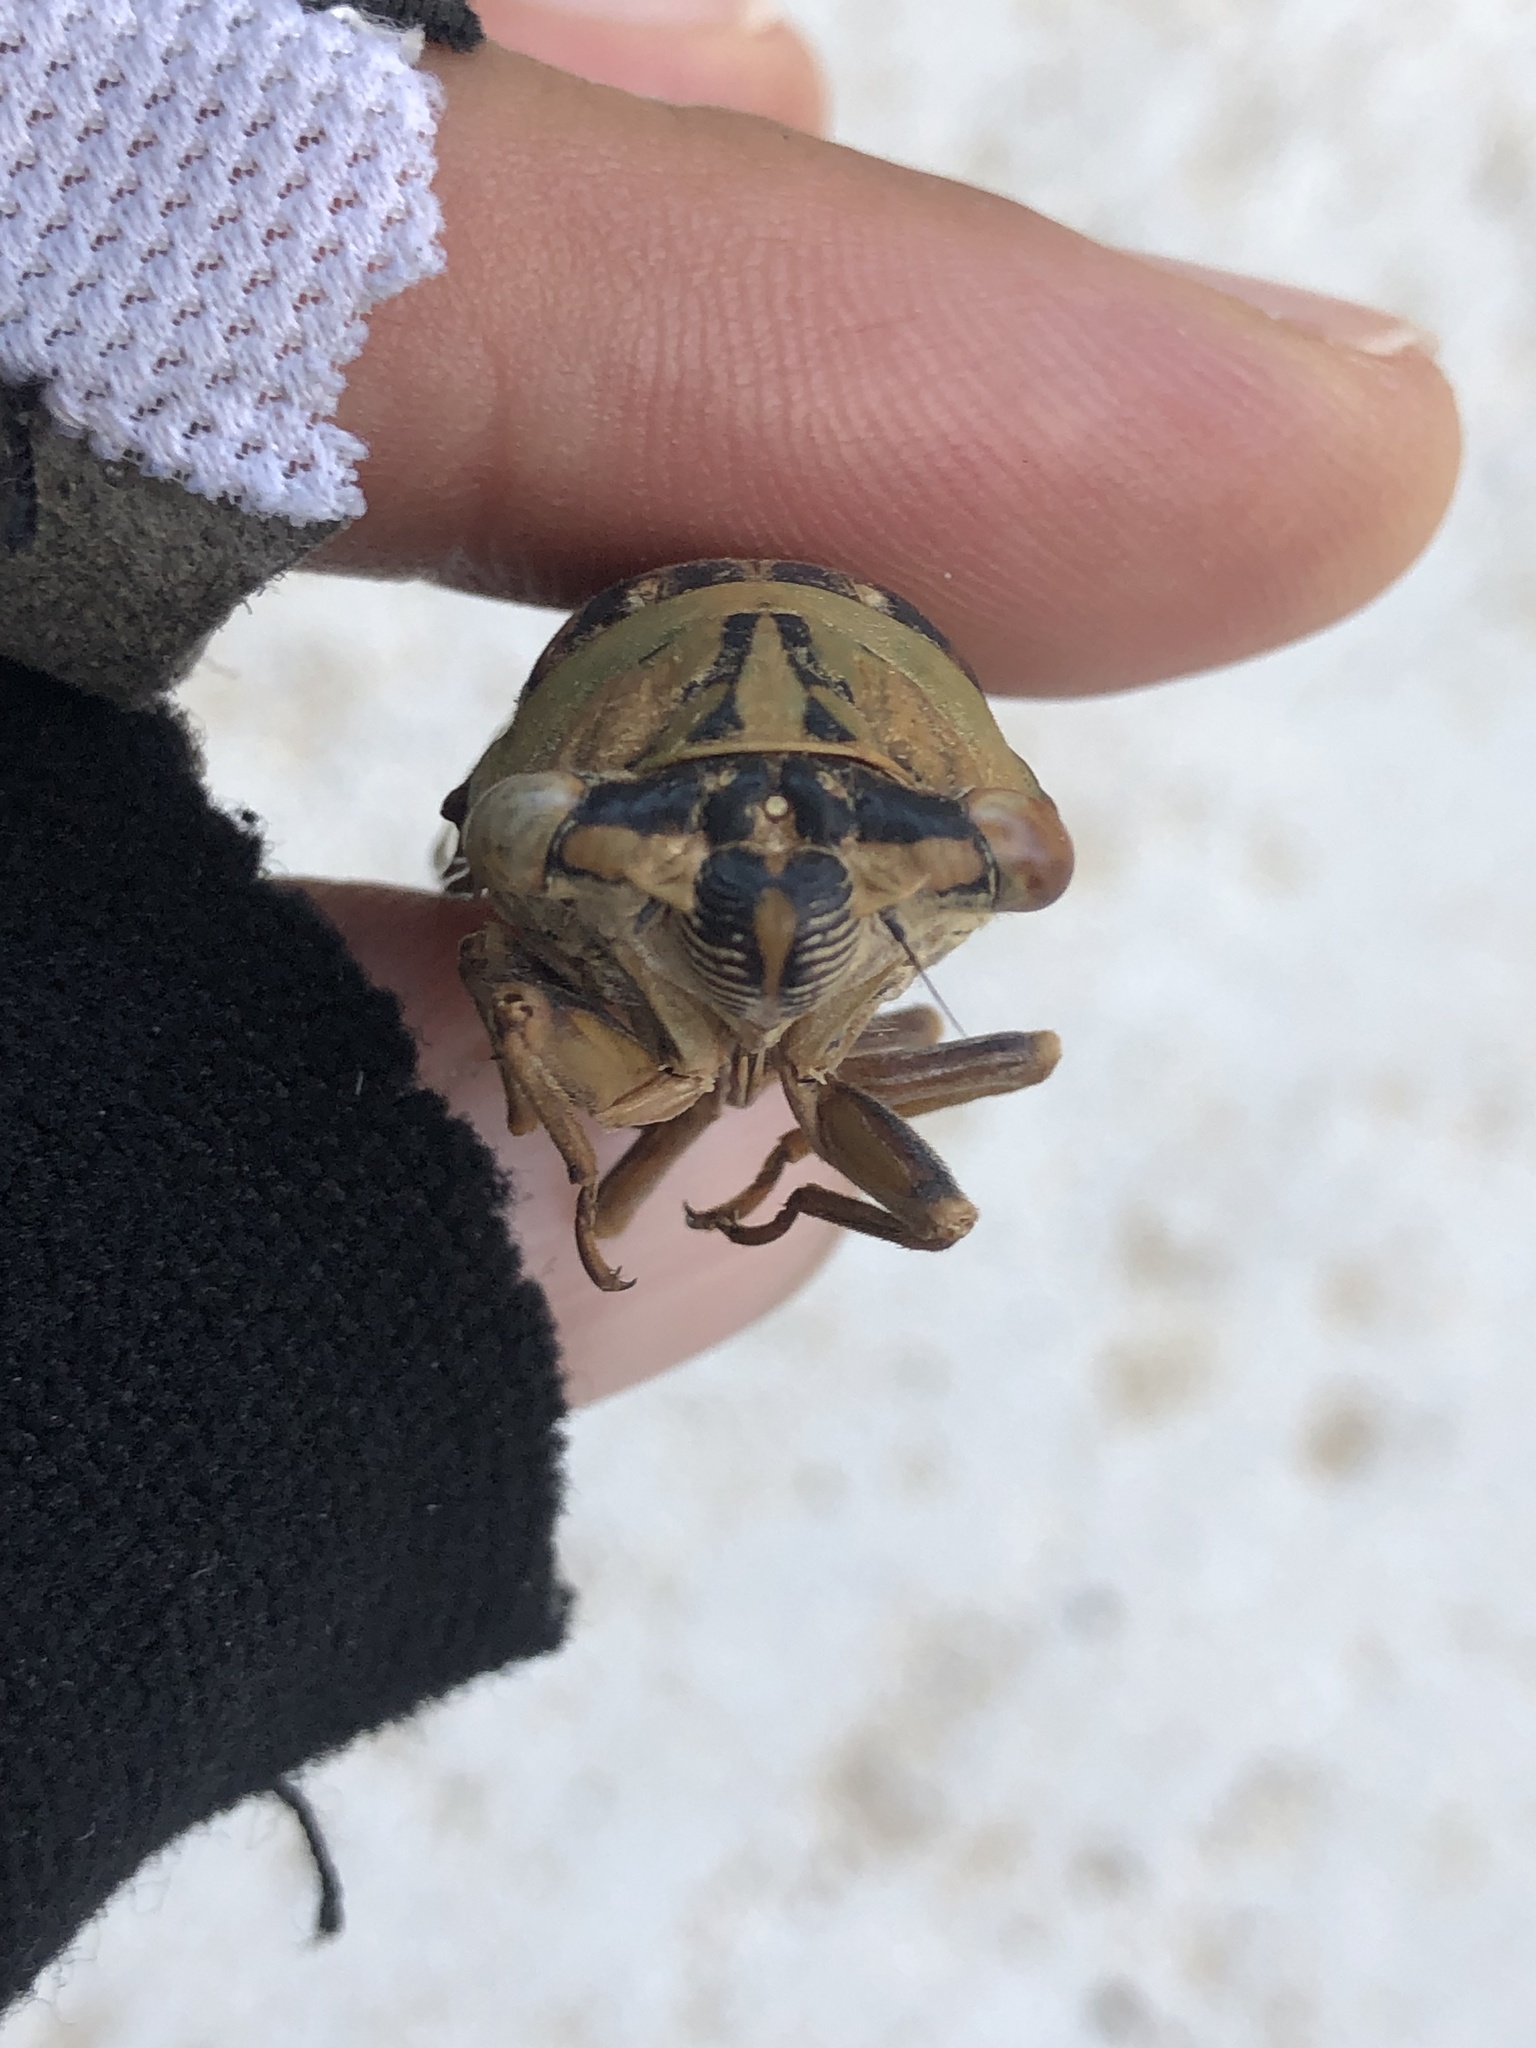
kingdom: Animalia
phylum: Arthropoda
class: Insecta
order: Hemiptera
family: Cicadidae
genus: Megatibicen
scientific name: Megatibicen resh
